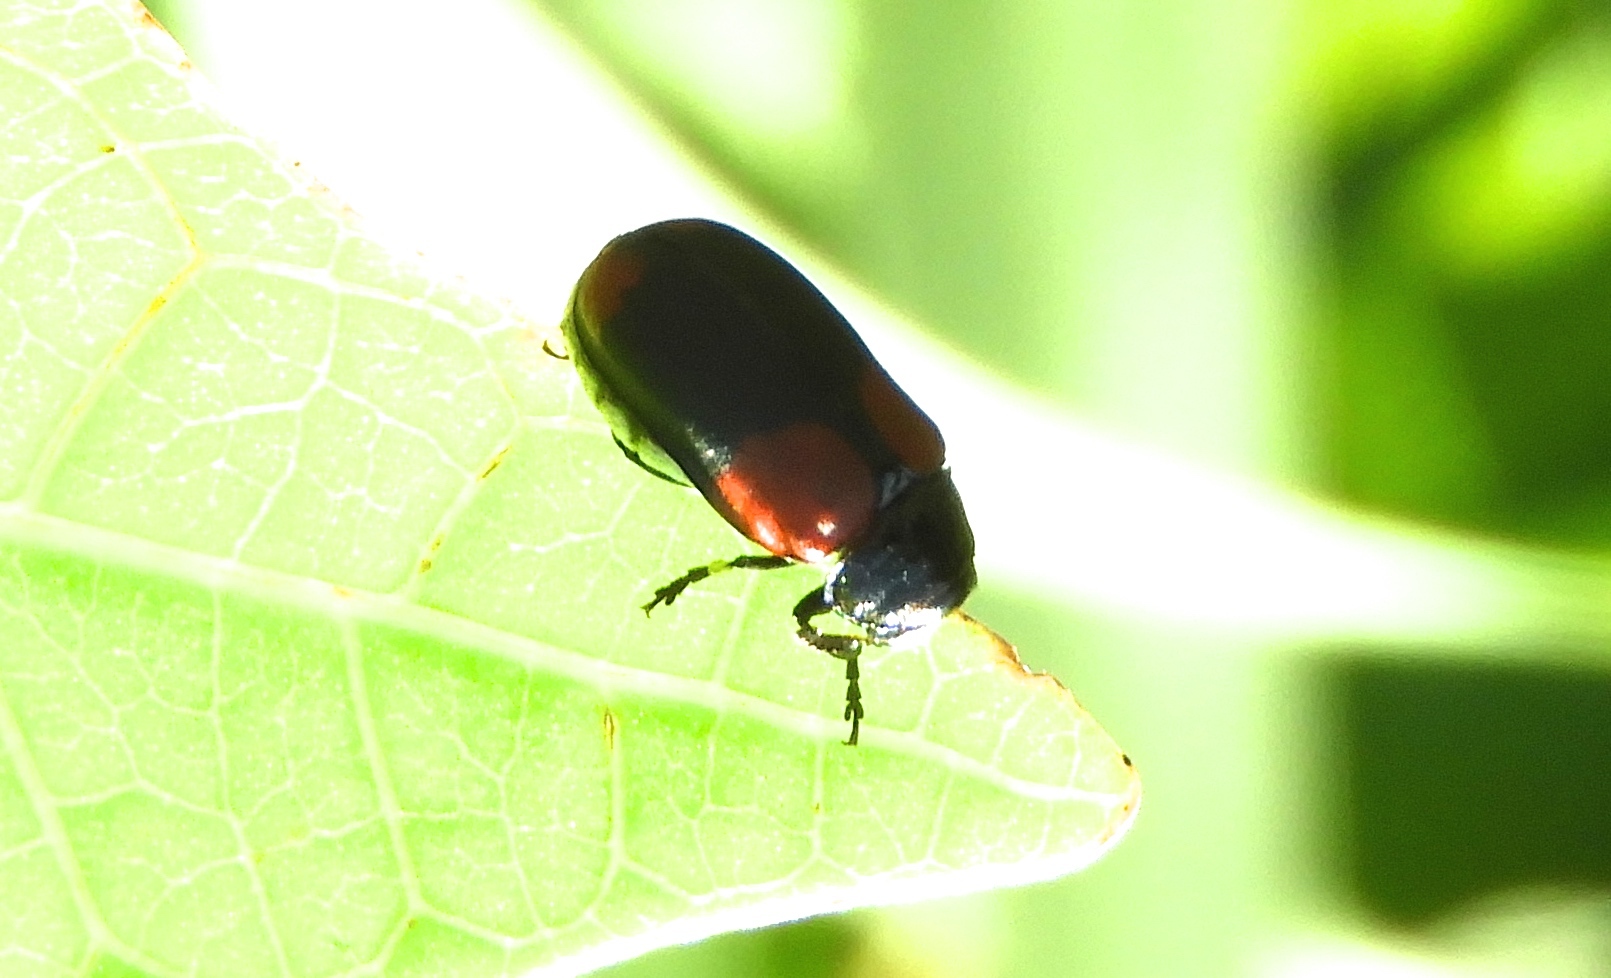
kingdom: Animalia
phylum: Arthropoda
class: Insecta
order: Coleoptera
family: Chrysomelidae
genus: Anomoea
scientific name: Anomoea rufifrons
